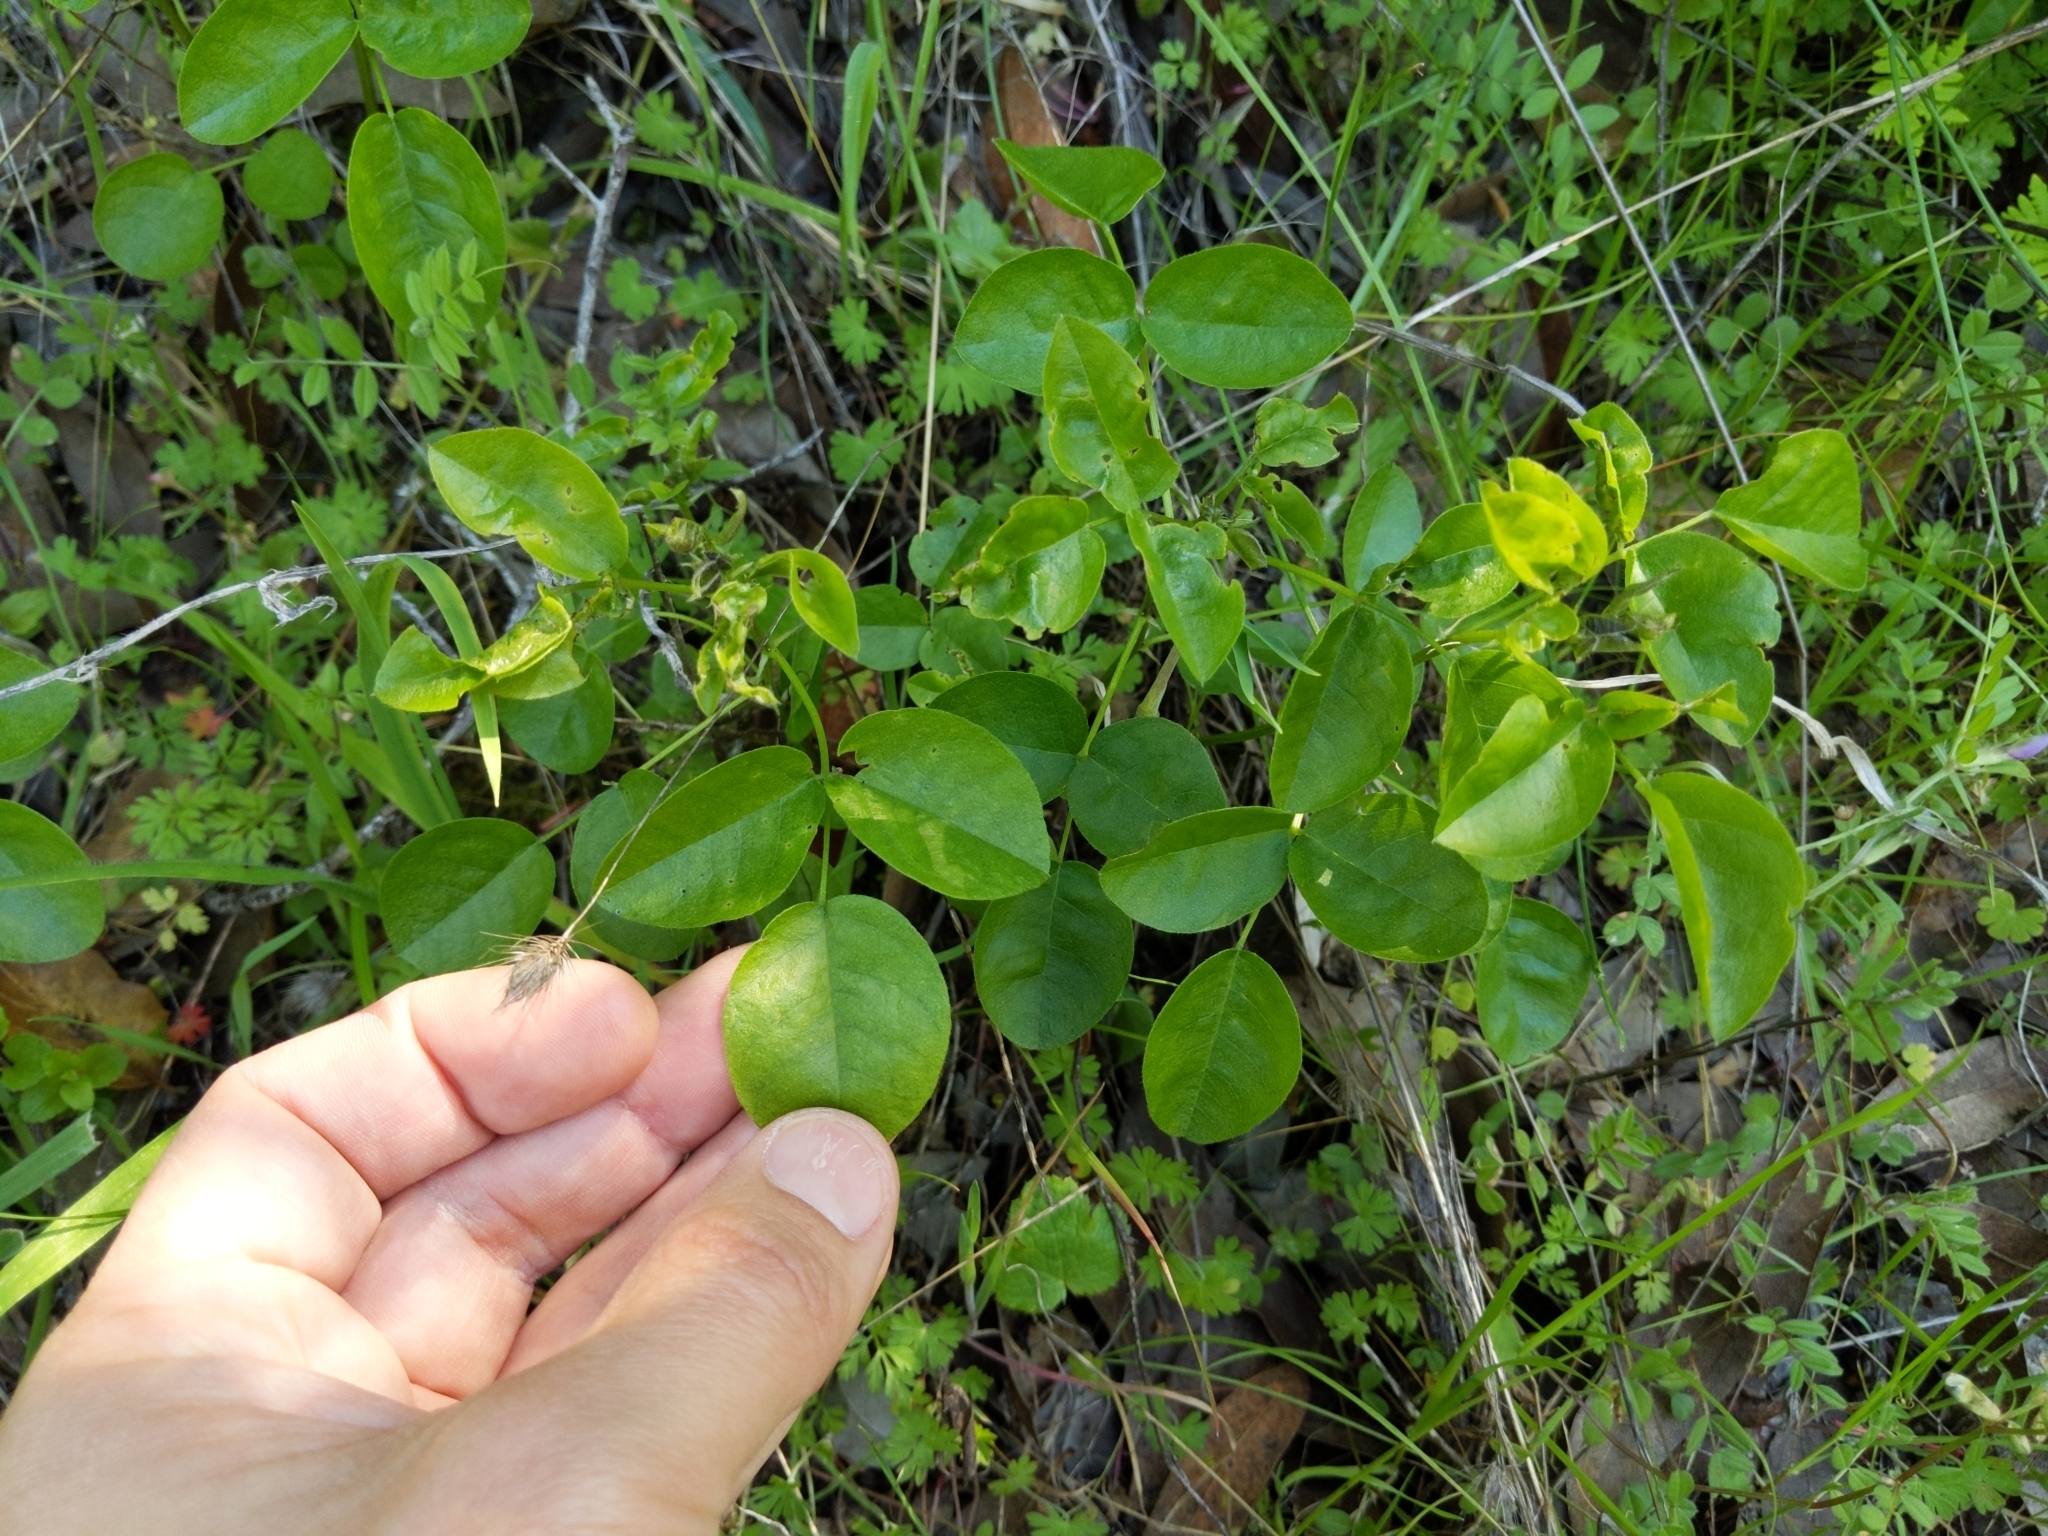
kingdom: Plantae
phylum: Tracheophyta
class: Magnoliopsida
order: Fabales
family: Fabaceae
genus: Rupertia
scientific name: Rupertia physodes
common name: California-tea
